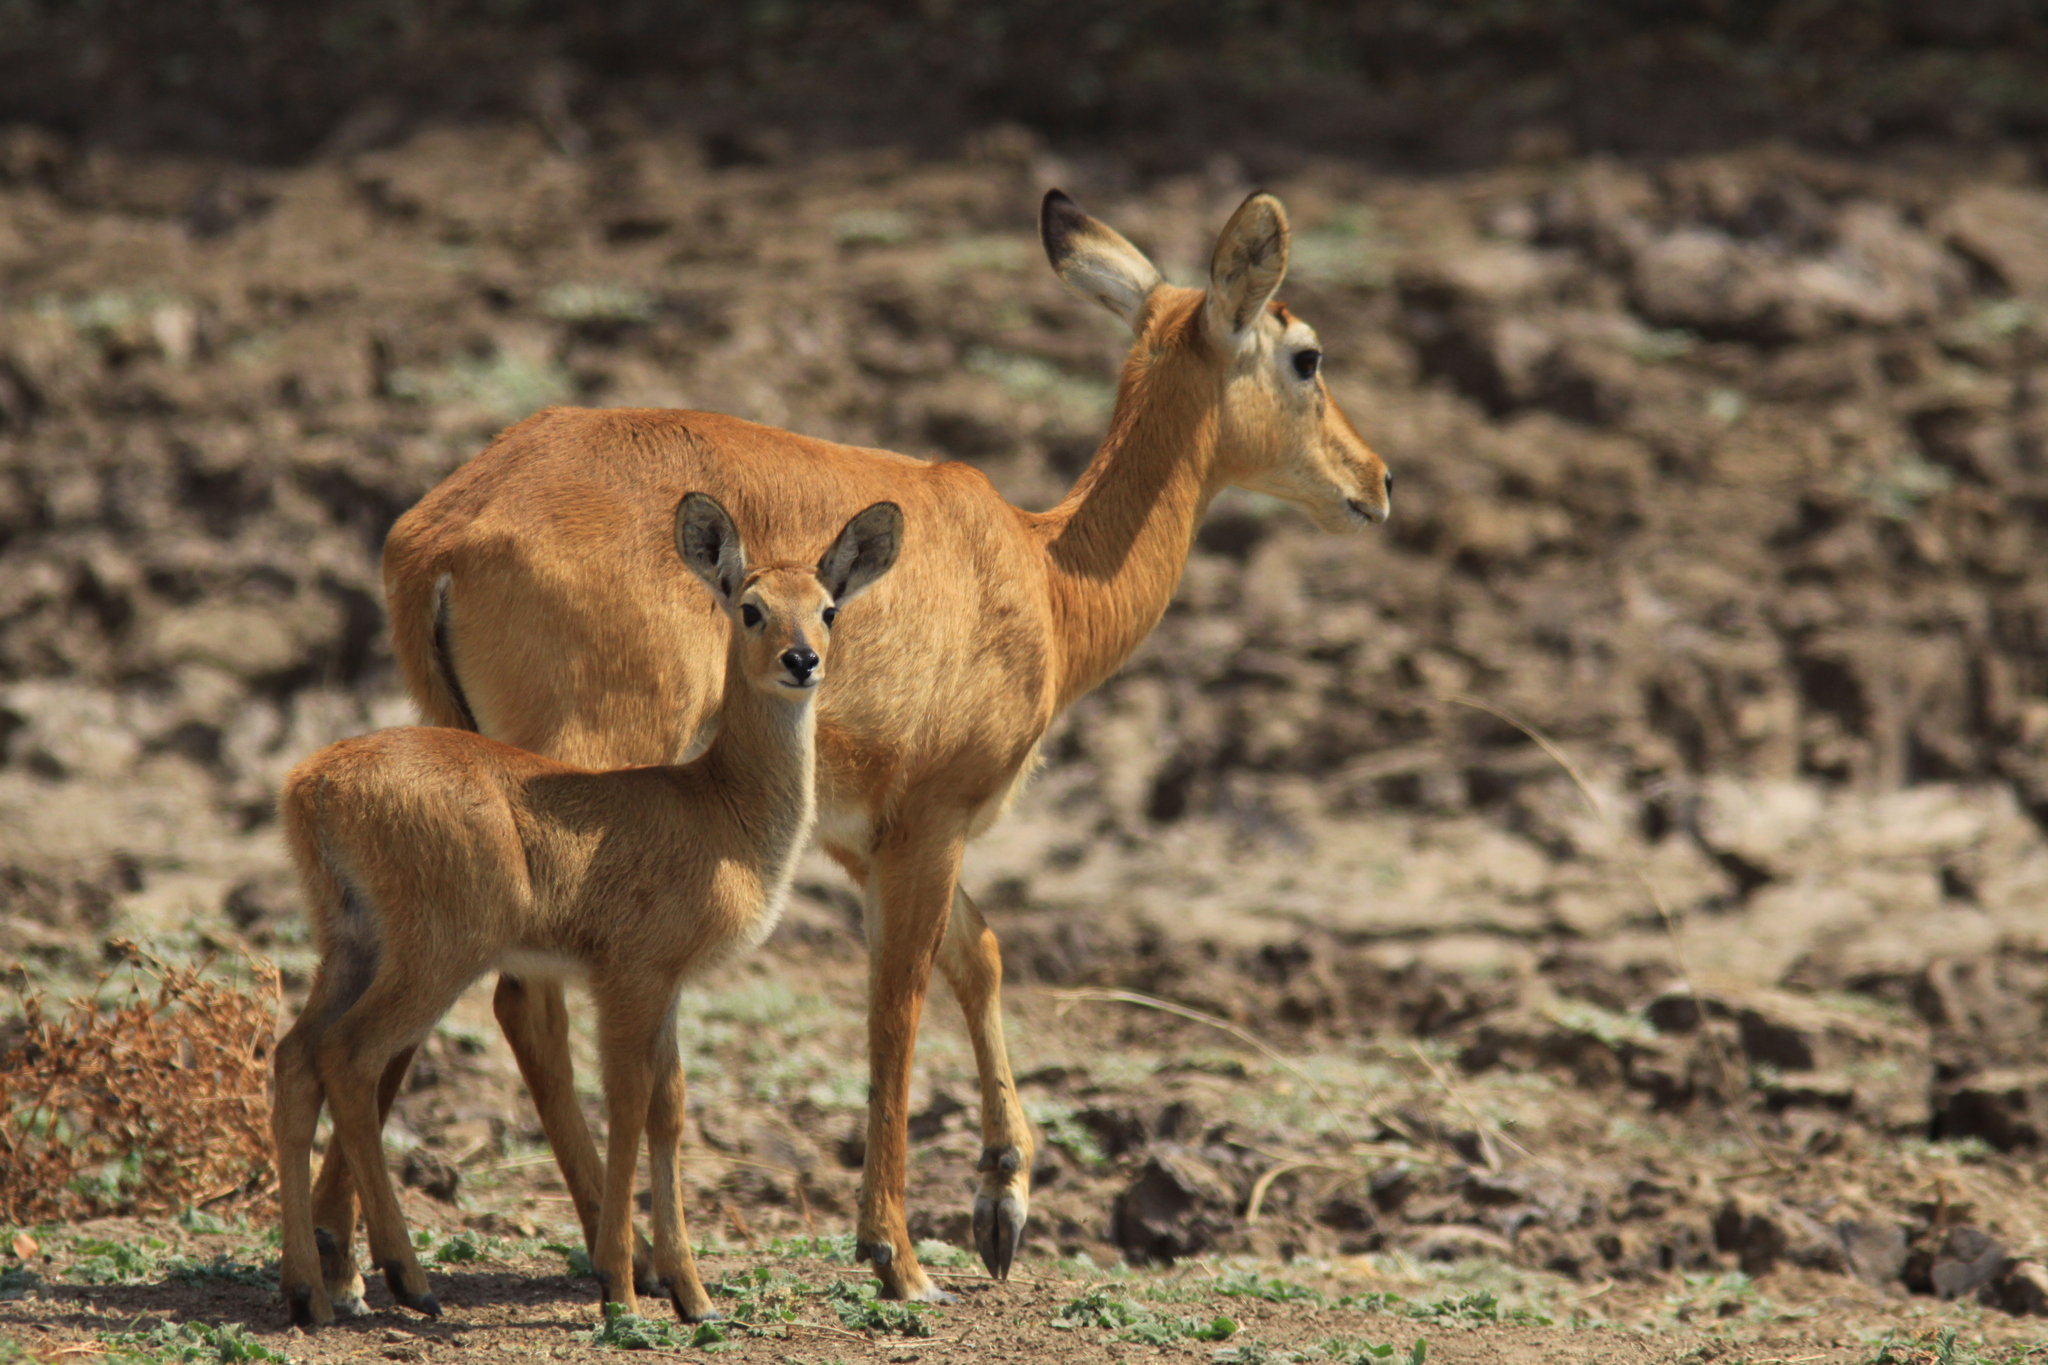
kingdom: Animalia
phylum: Chordata
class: Mammalia
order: Artiodactyla
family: Bovidae
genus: Kobus
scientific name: Kobus vardonii
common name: Puku
